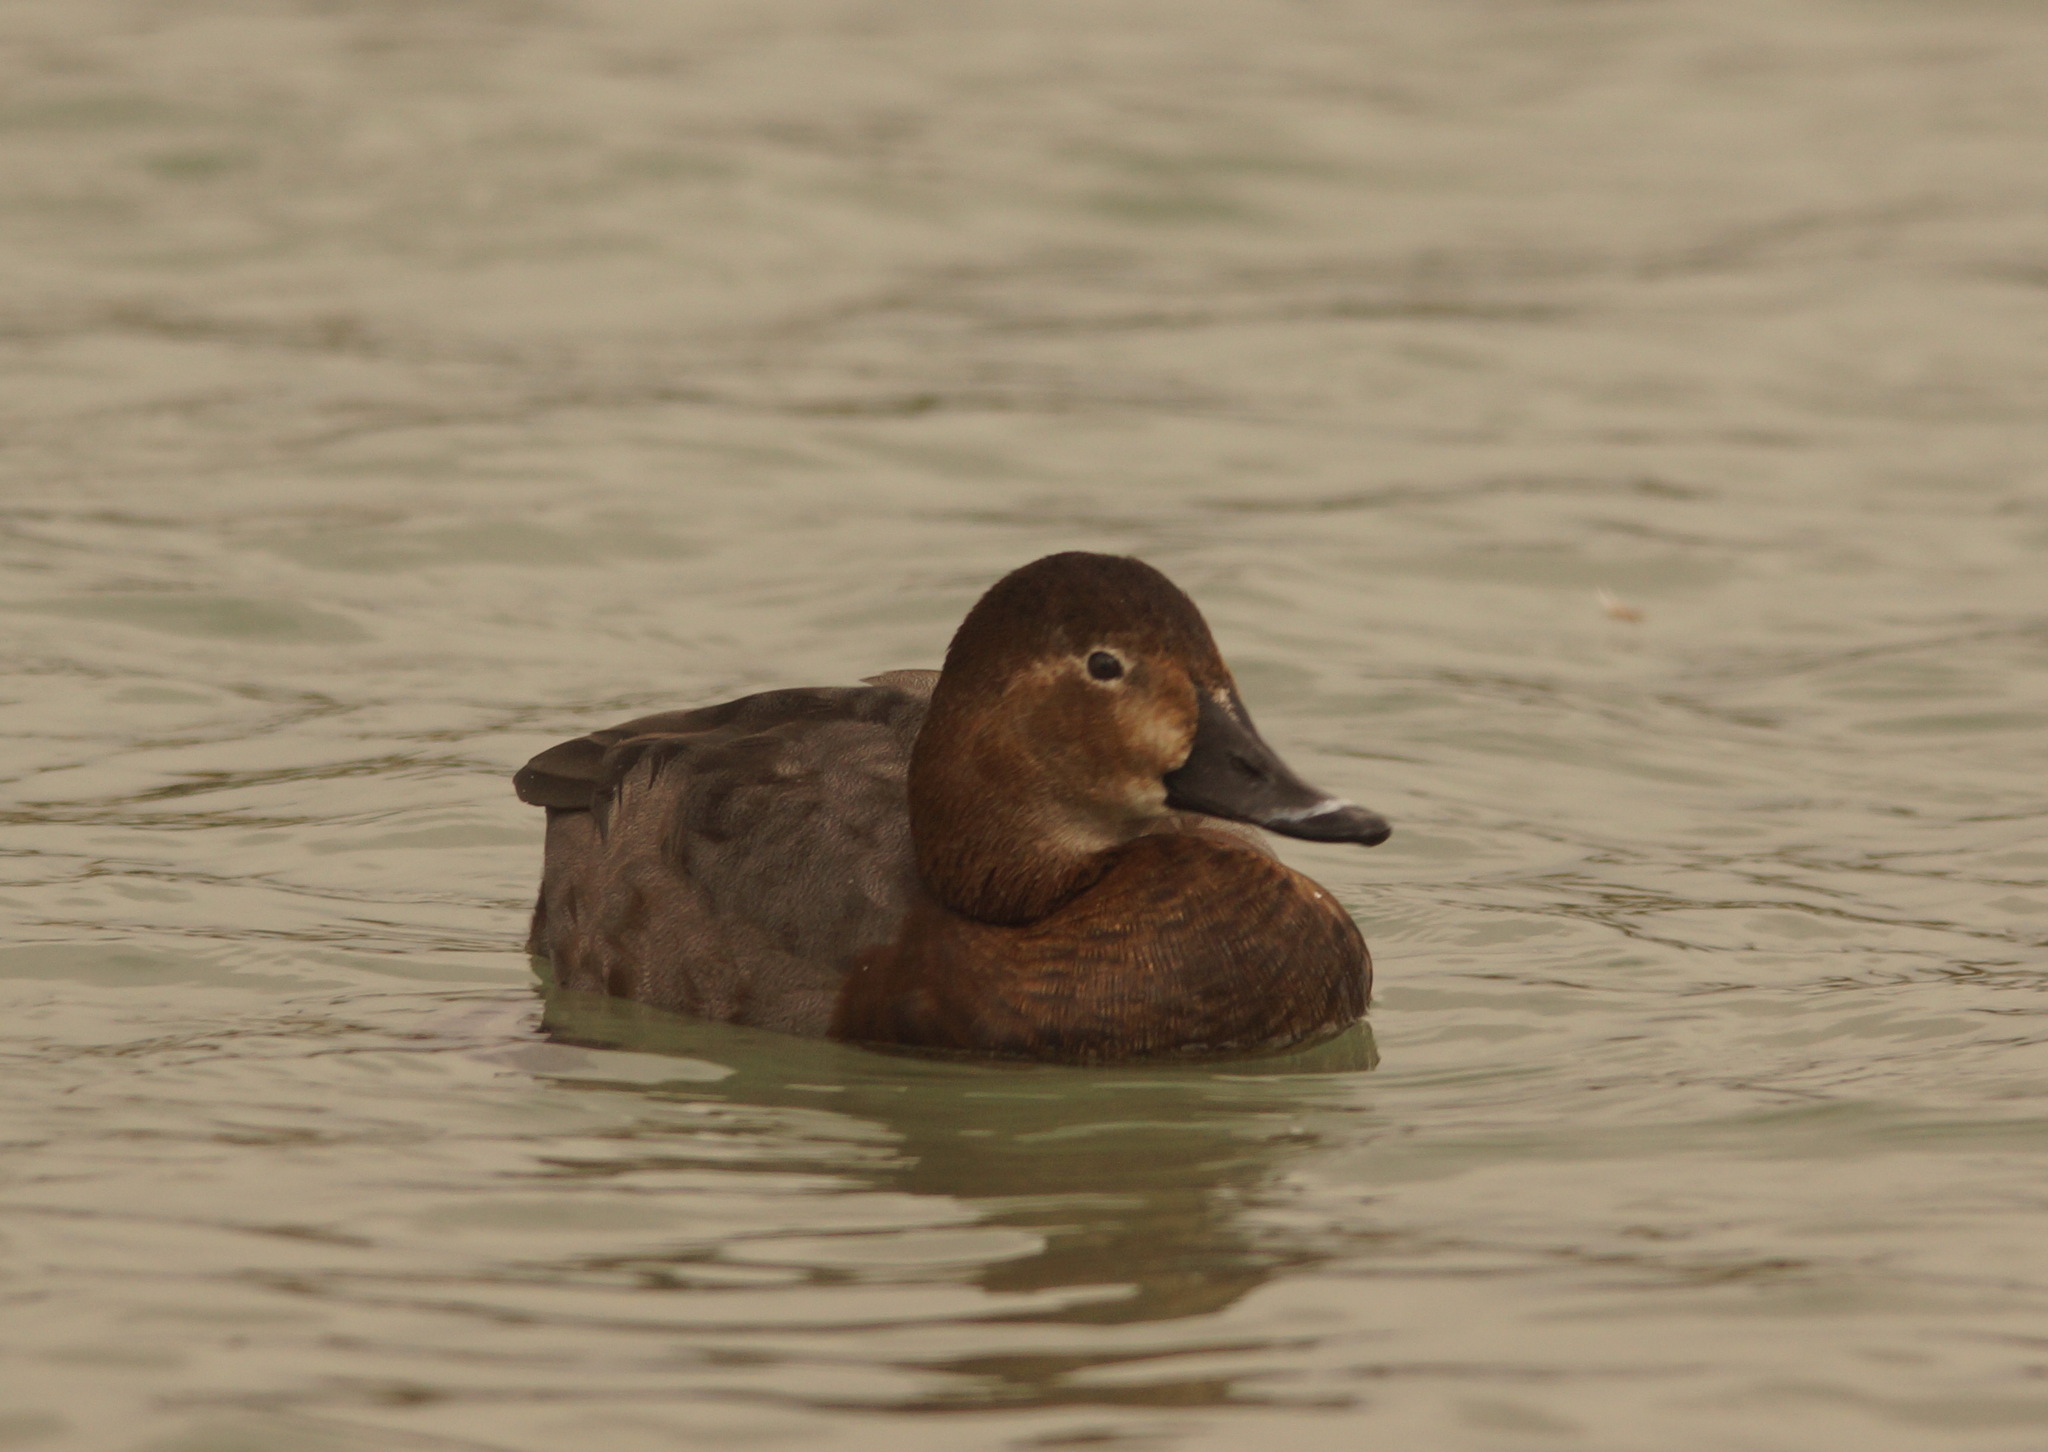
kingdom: Animalia
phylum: Chordata
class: Aves
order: Anseriformes
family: Anatidae
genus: Aythya
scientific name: Aythya ferina
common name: Common pochard
